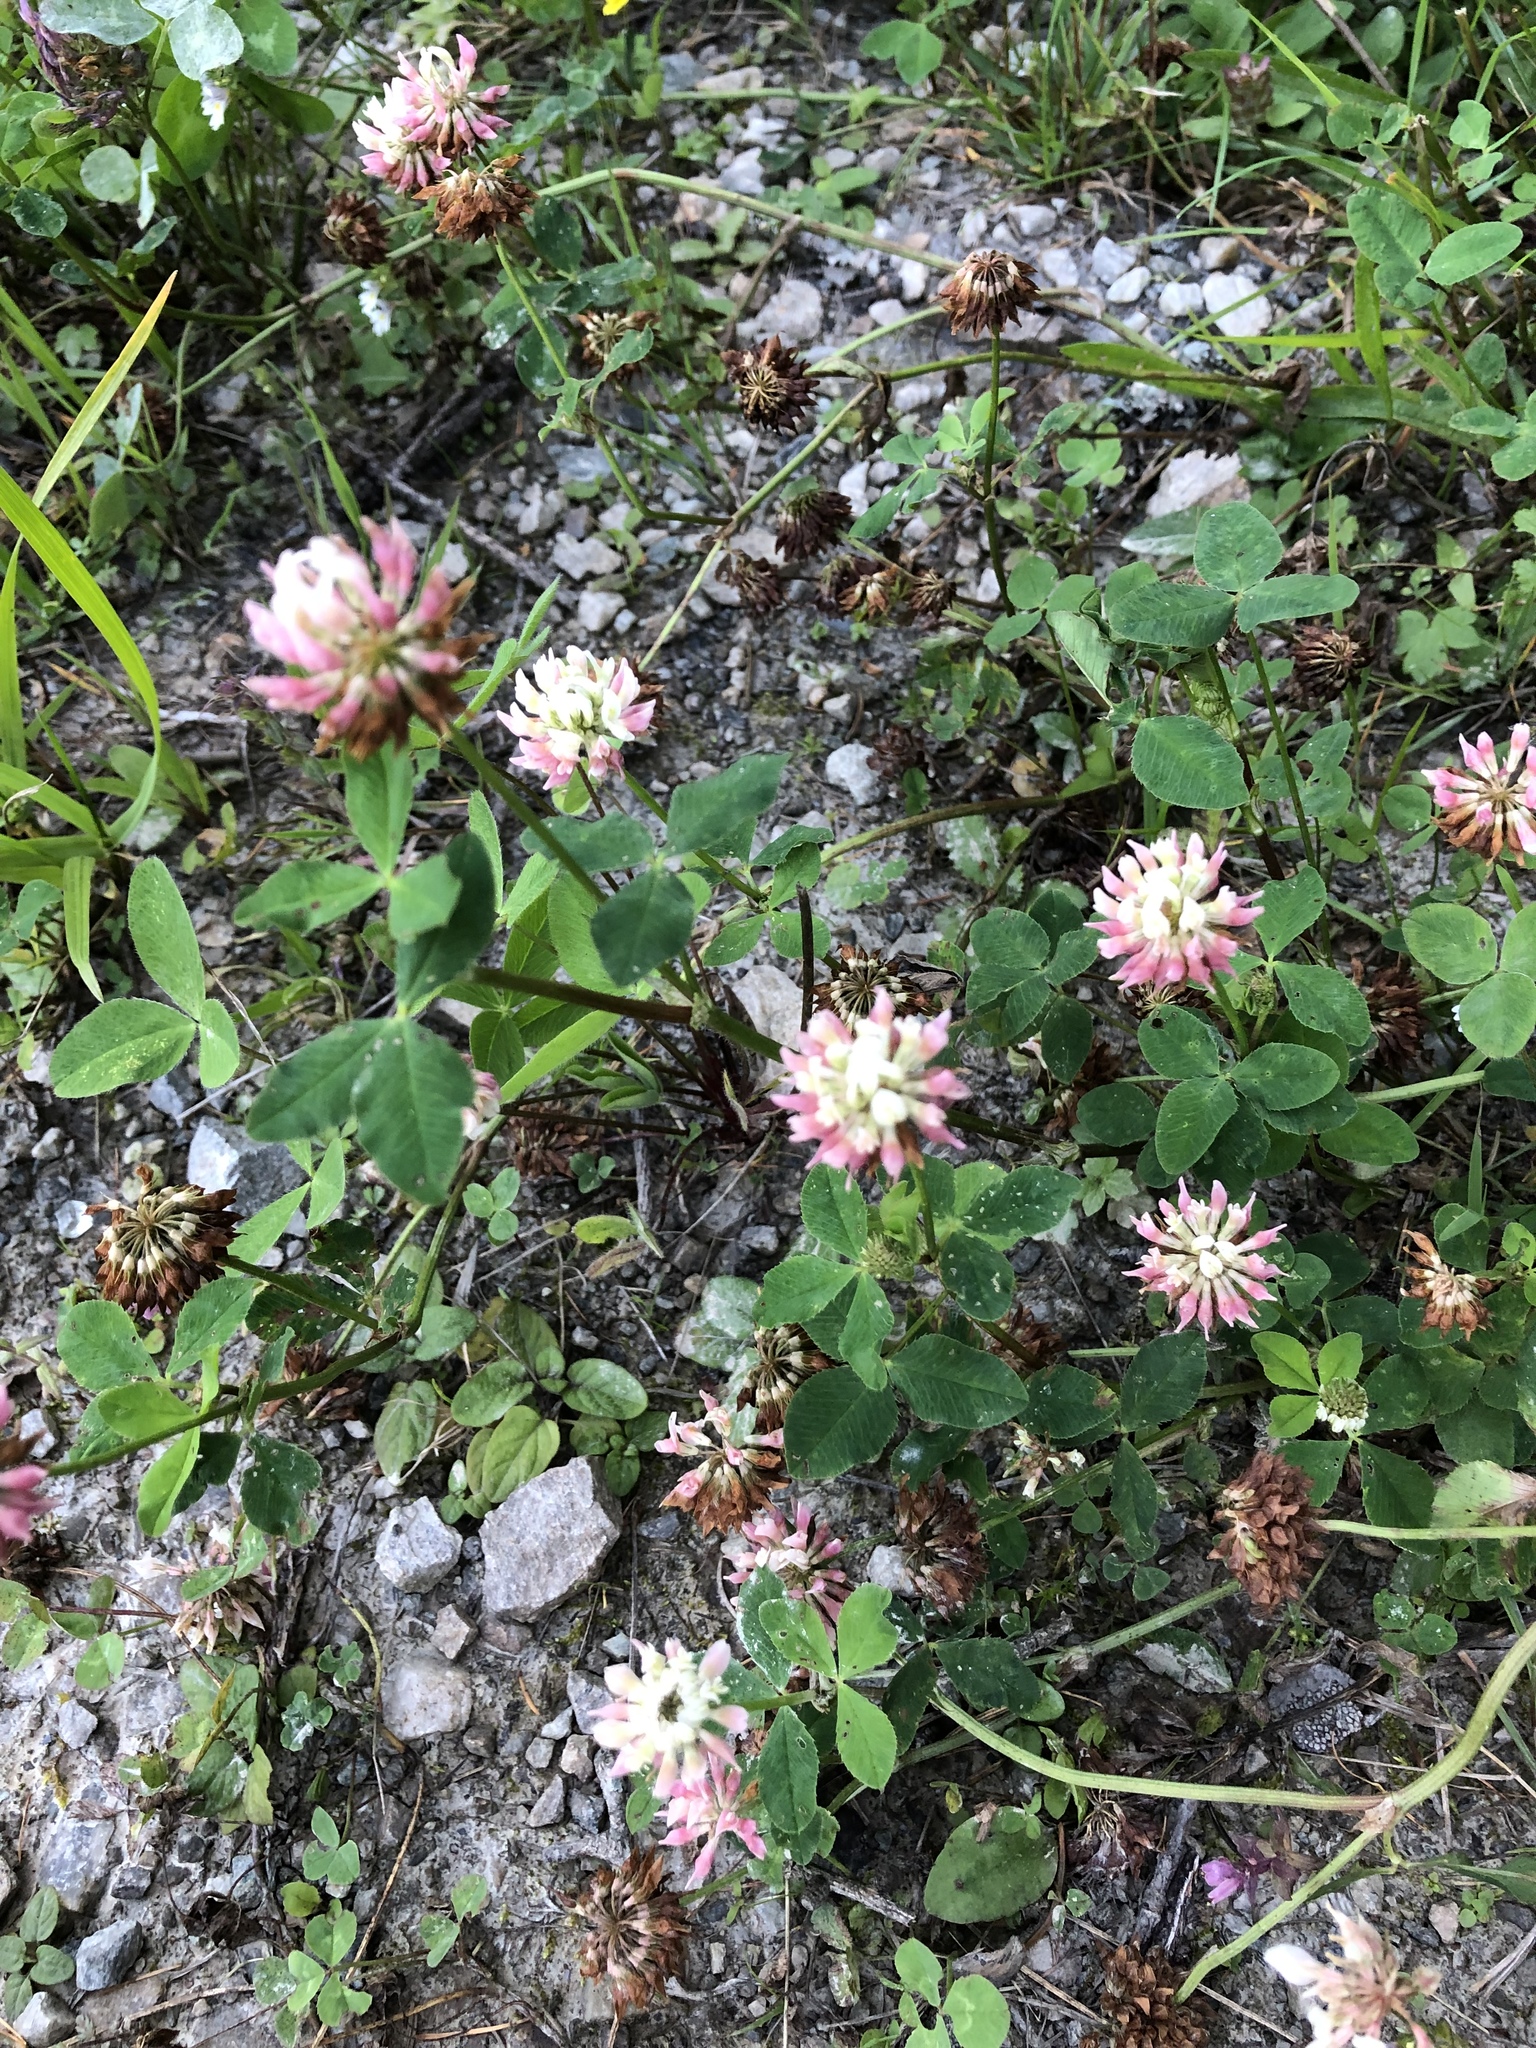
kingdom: Plantae
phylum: Tracheophyta
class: Magnoliopsida
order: Fabales
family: Fabaceae
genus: Trifolium
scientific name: Trifolium hybridum
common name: Alsike clover
